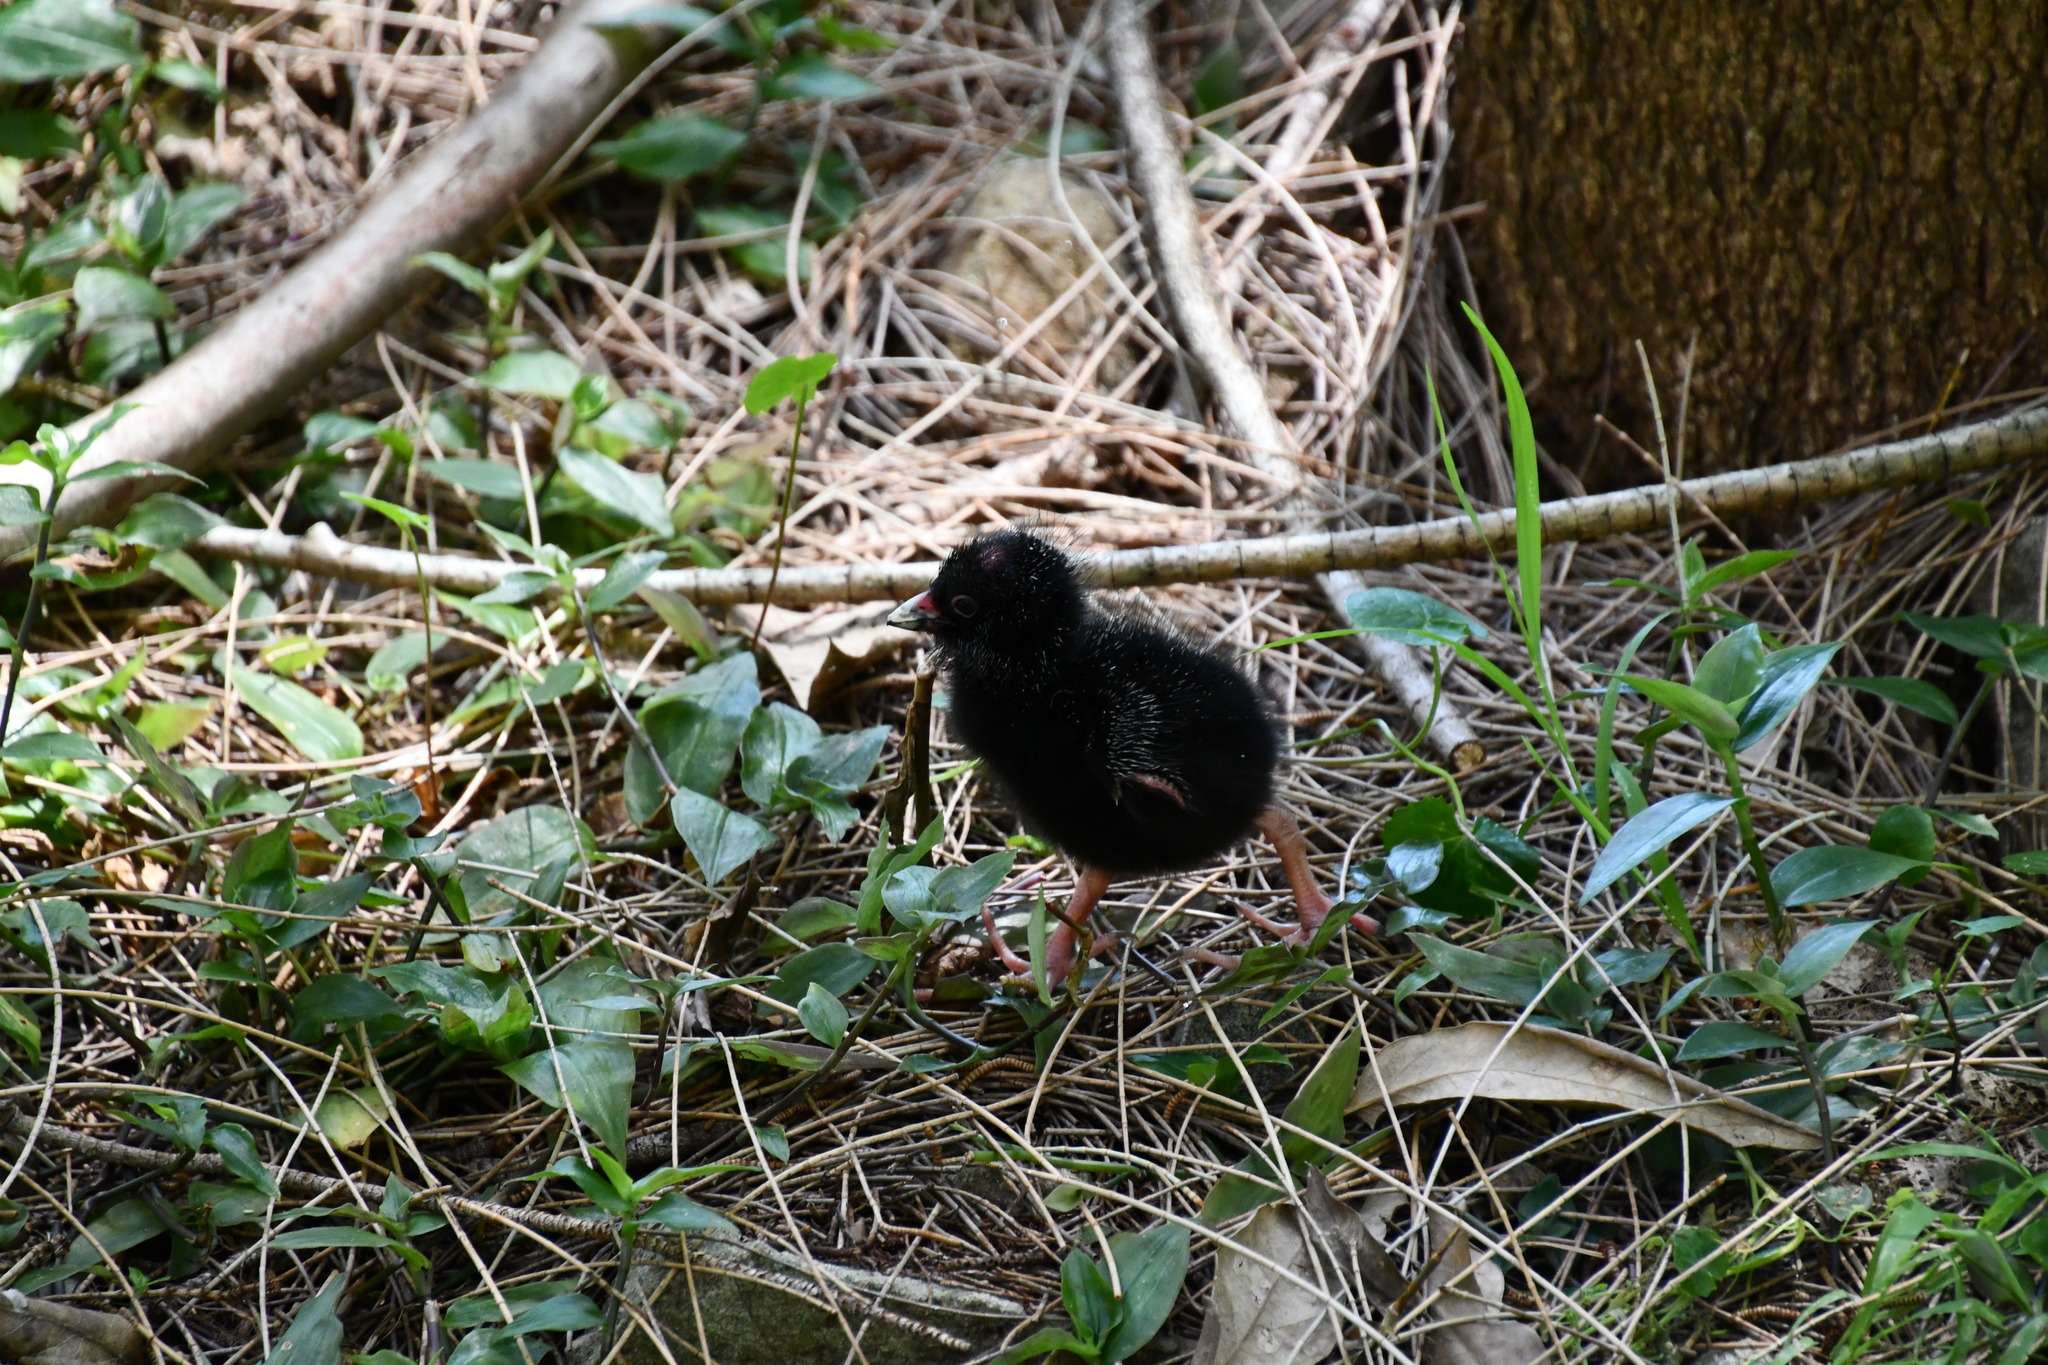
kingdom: Animalia
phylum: Chordata
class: Aves
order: Gruiformes
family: Rallidae
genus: Porphyrio
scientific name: Porphyrio melanotus
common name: Australasian swamphen
